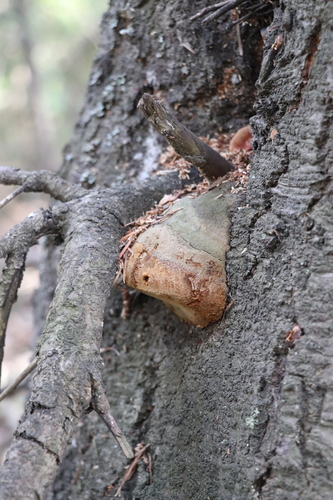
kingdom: Fungi
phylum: Basidiomycota
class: Agaricomycetes
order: Hymenochaetales
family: Hymenochaetaceae
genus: Phellinus
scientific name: Phellinus hartigii
